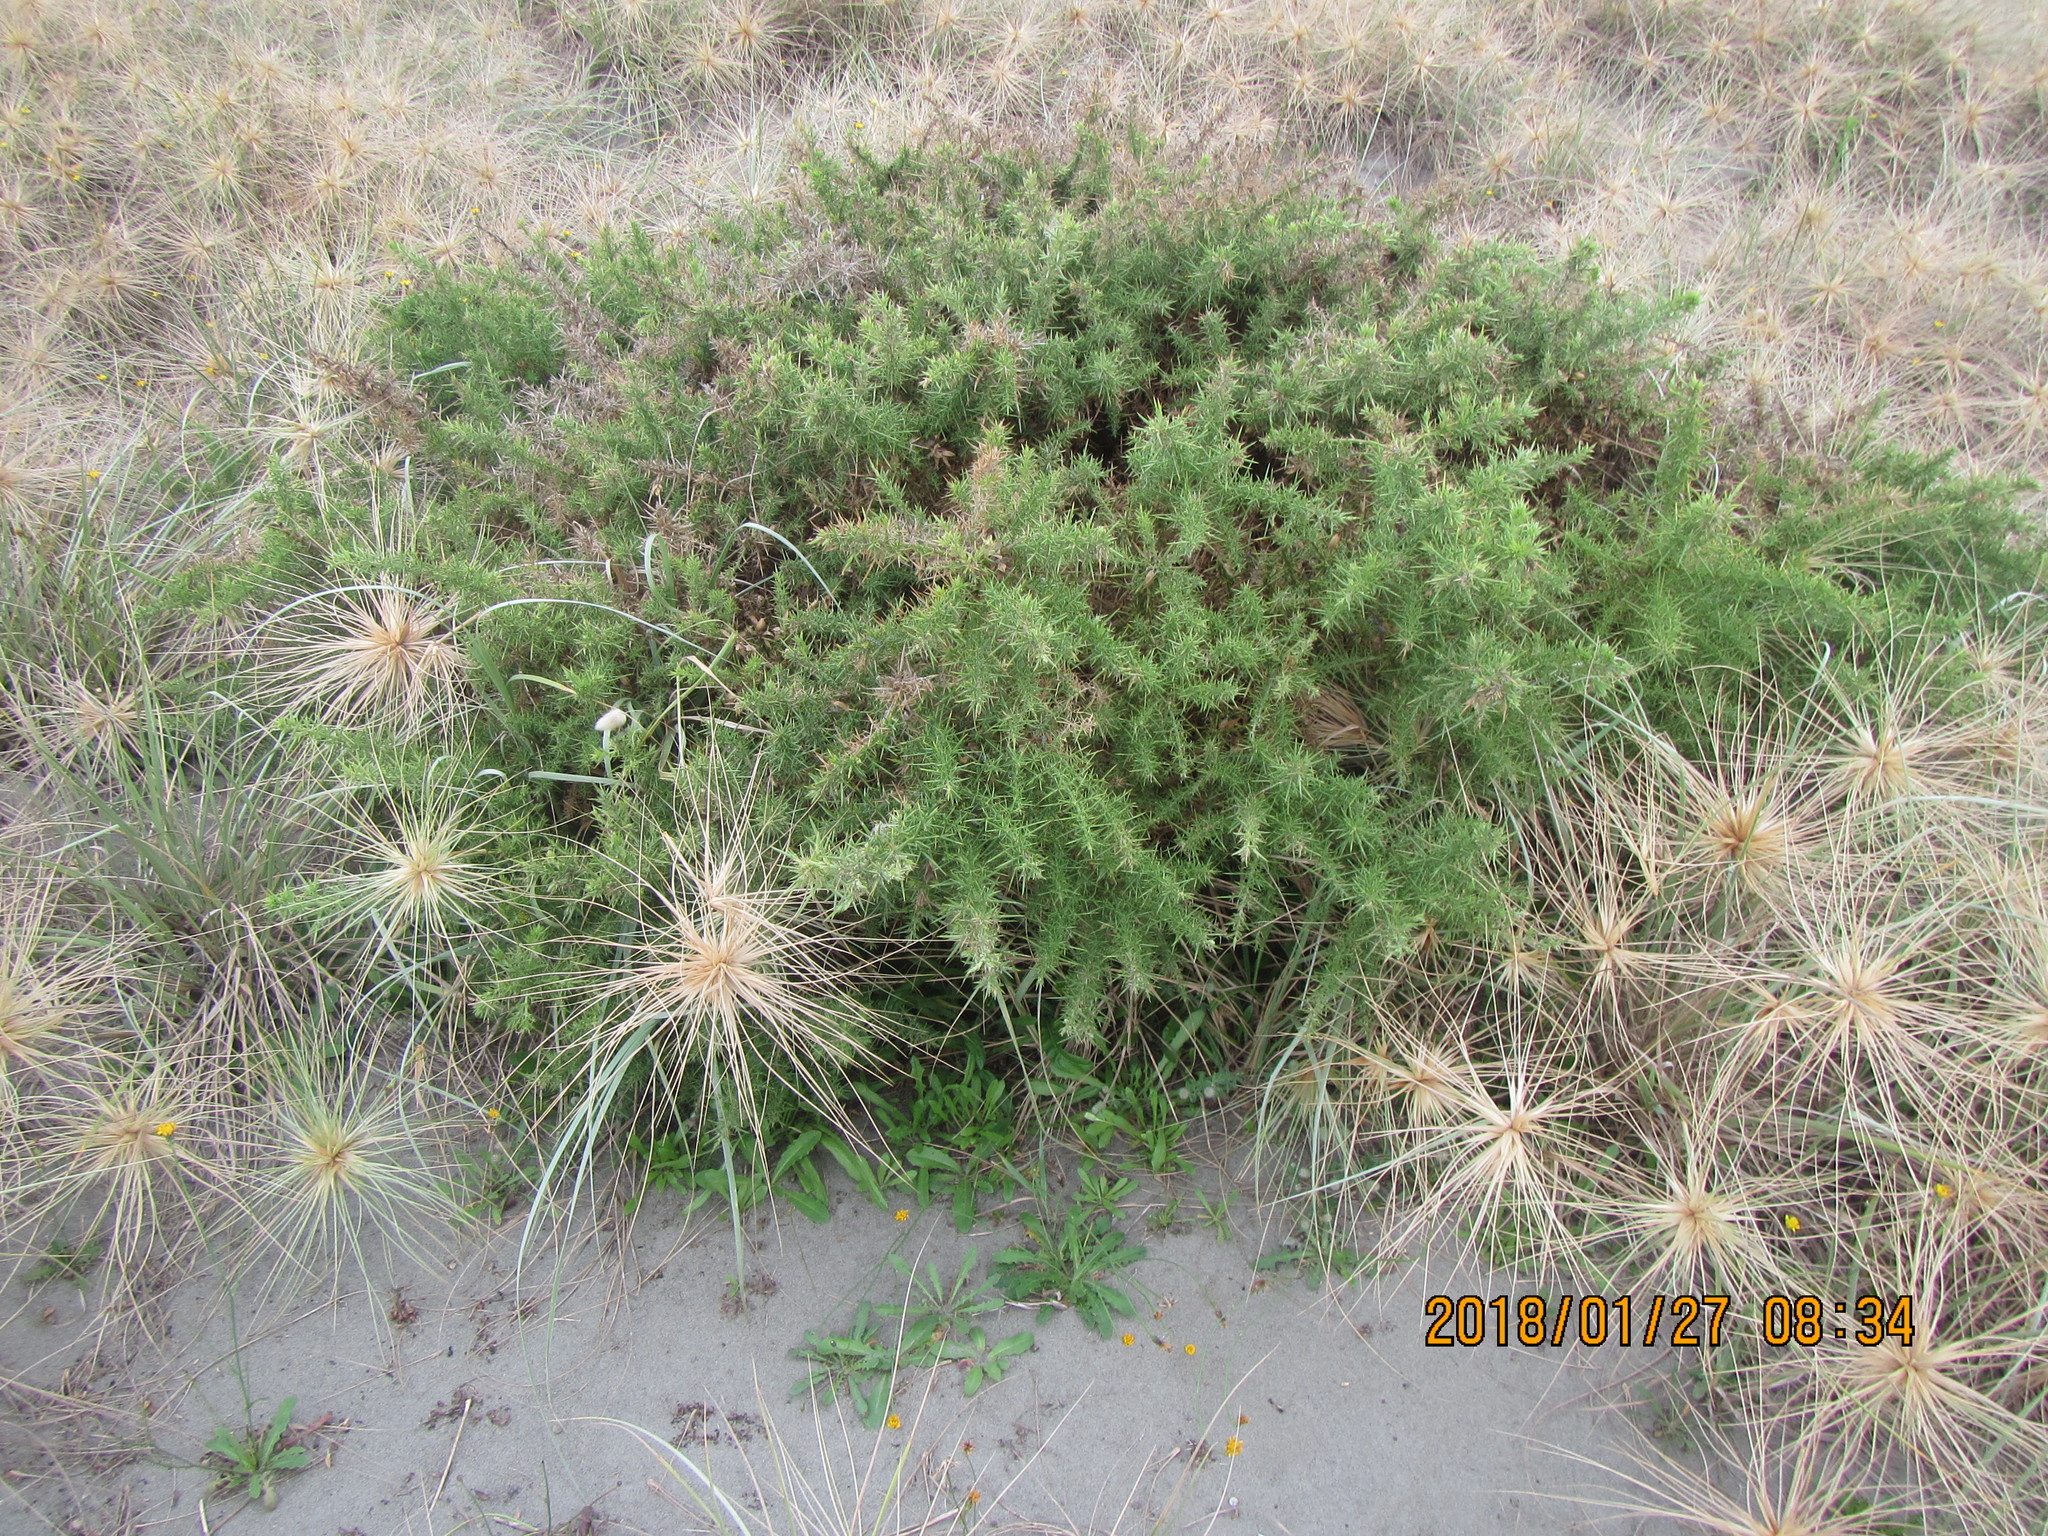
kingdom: Plantae
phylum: Tracheophyta
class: Magnoliopsida
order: Fabales
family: Fabaceae
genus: Ulex
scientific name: Ulex europaeus
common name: Common gorse
